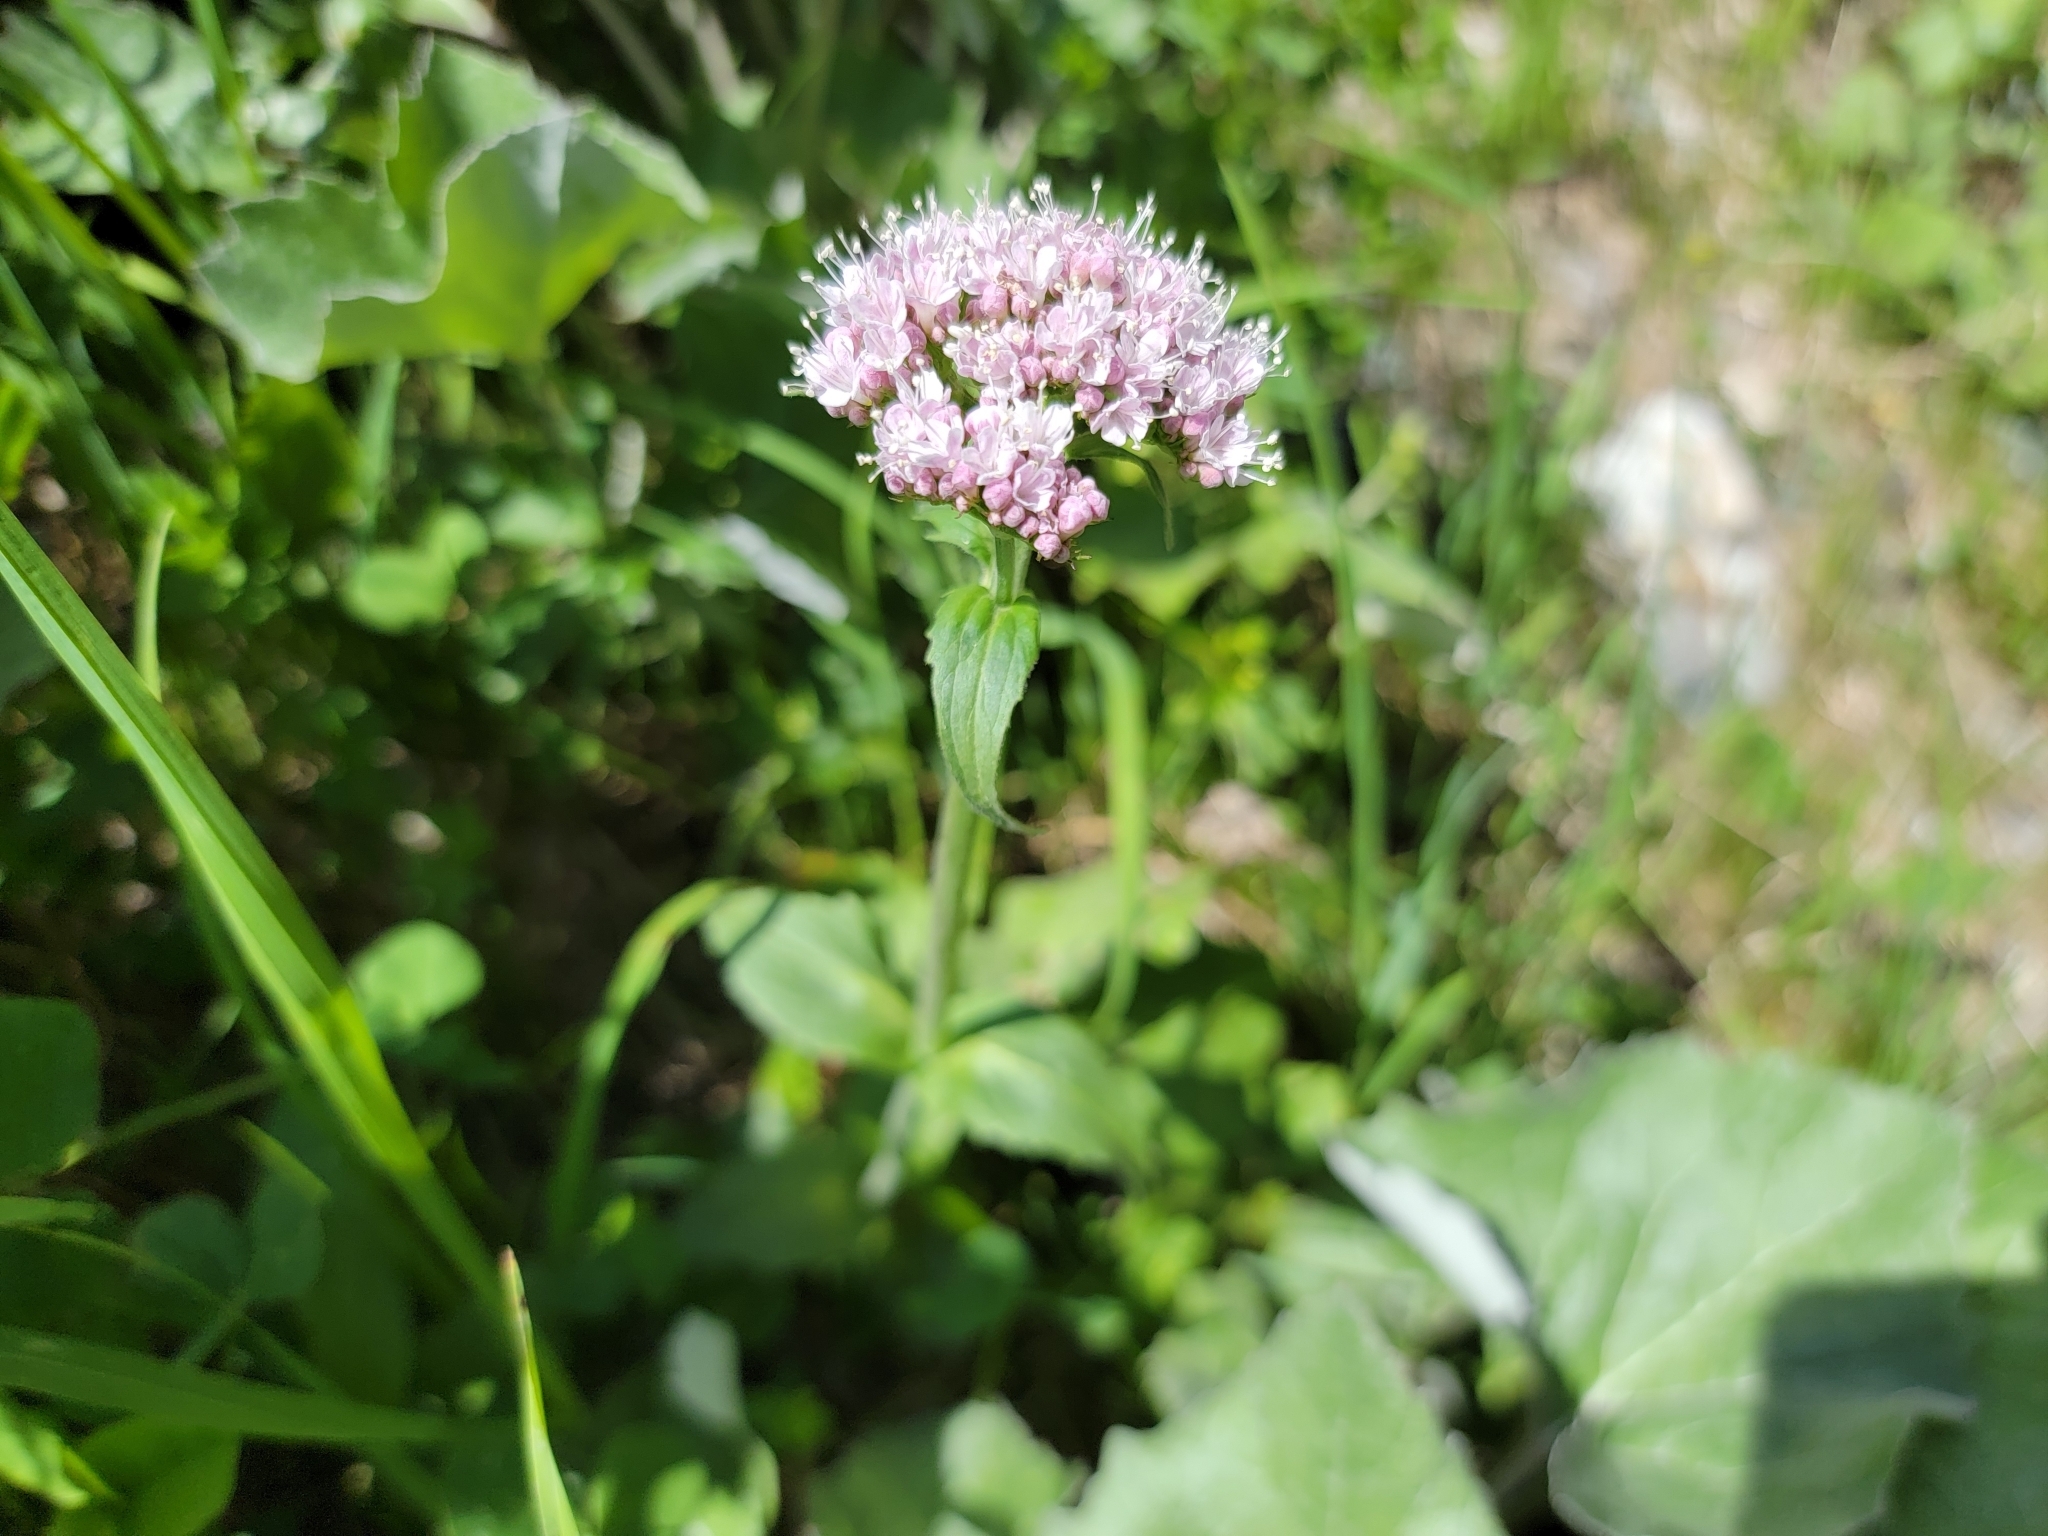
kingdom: Plantae
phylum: Tracheophyta
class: Magnoliopsida
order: Dipsacales
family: Caprifoliaceae
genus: Valeriana
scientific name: Valeriana montana
